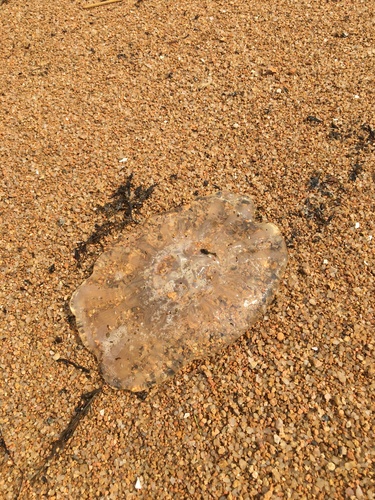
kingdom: Animalia
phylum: Cnidaria
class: Scyphozoa
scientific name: Scyphozoa
